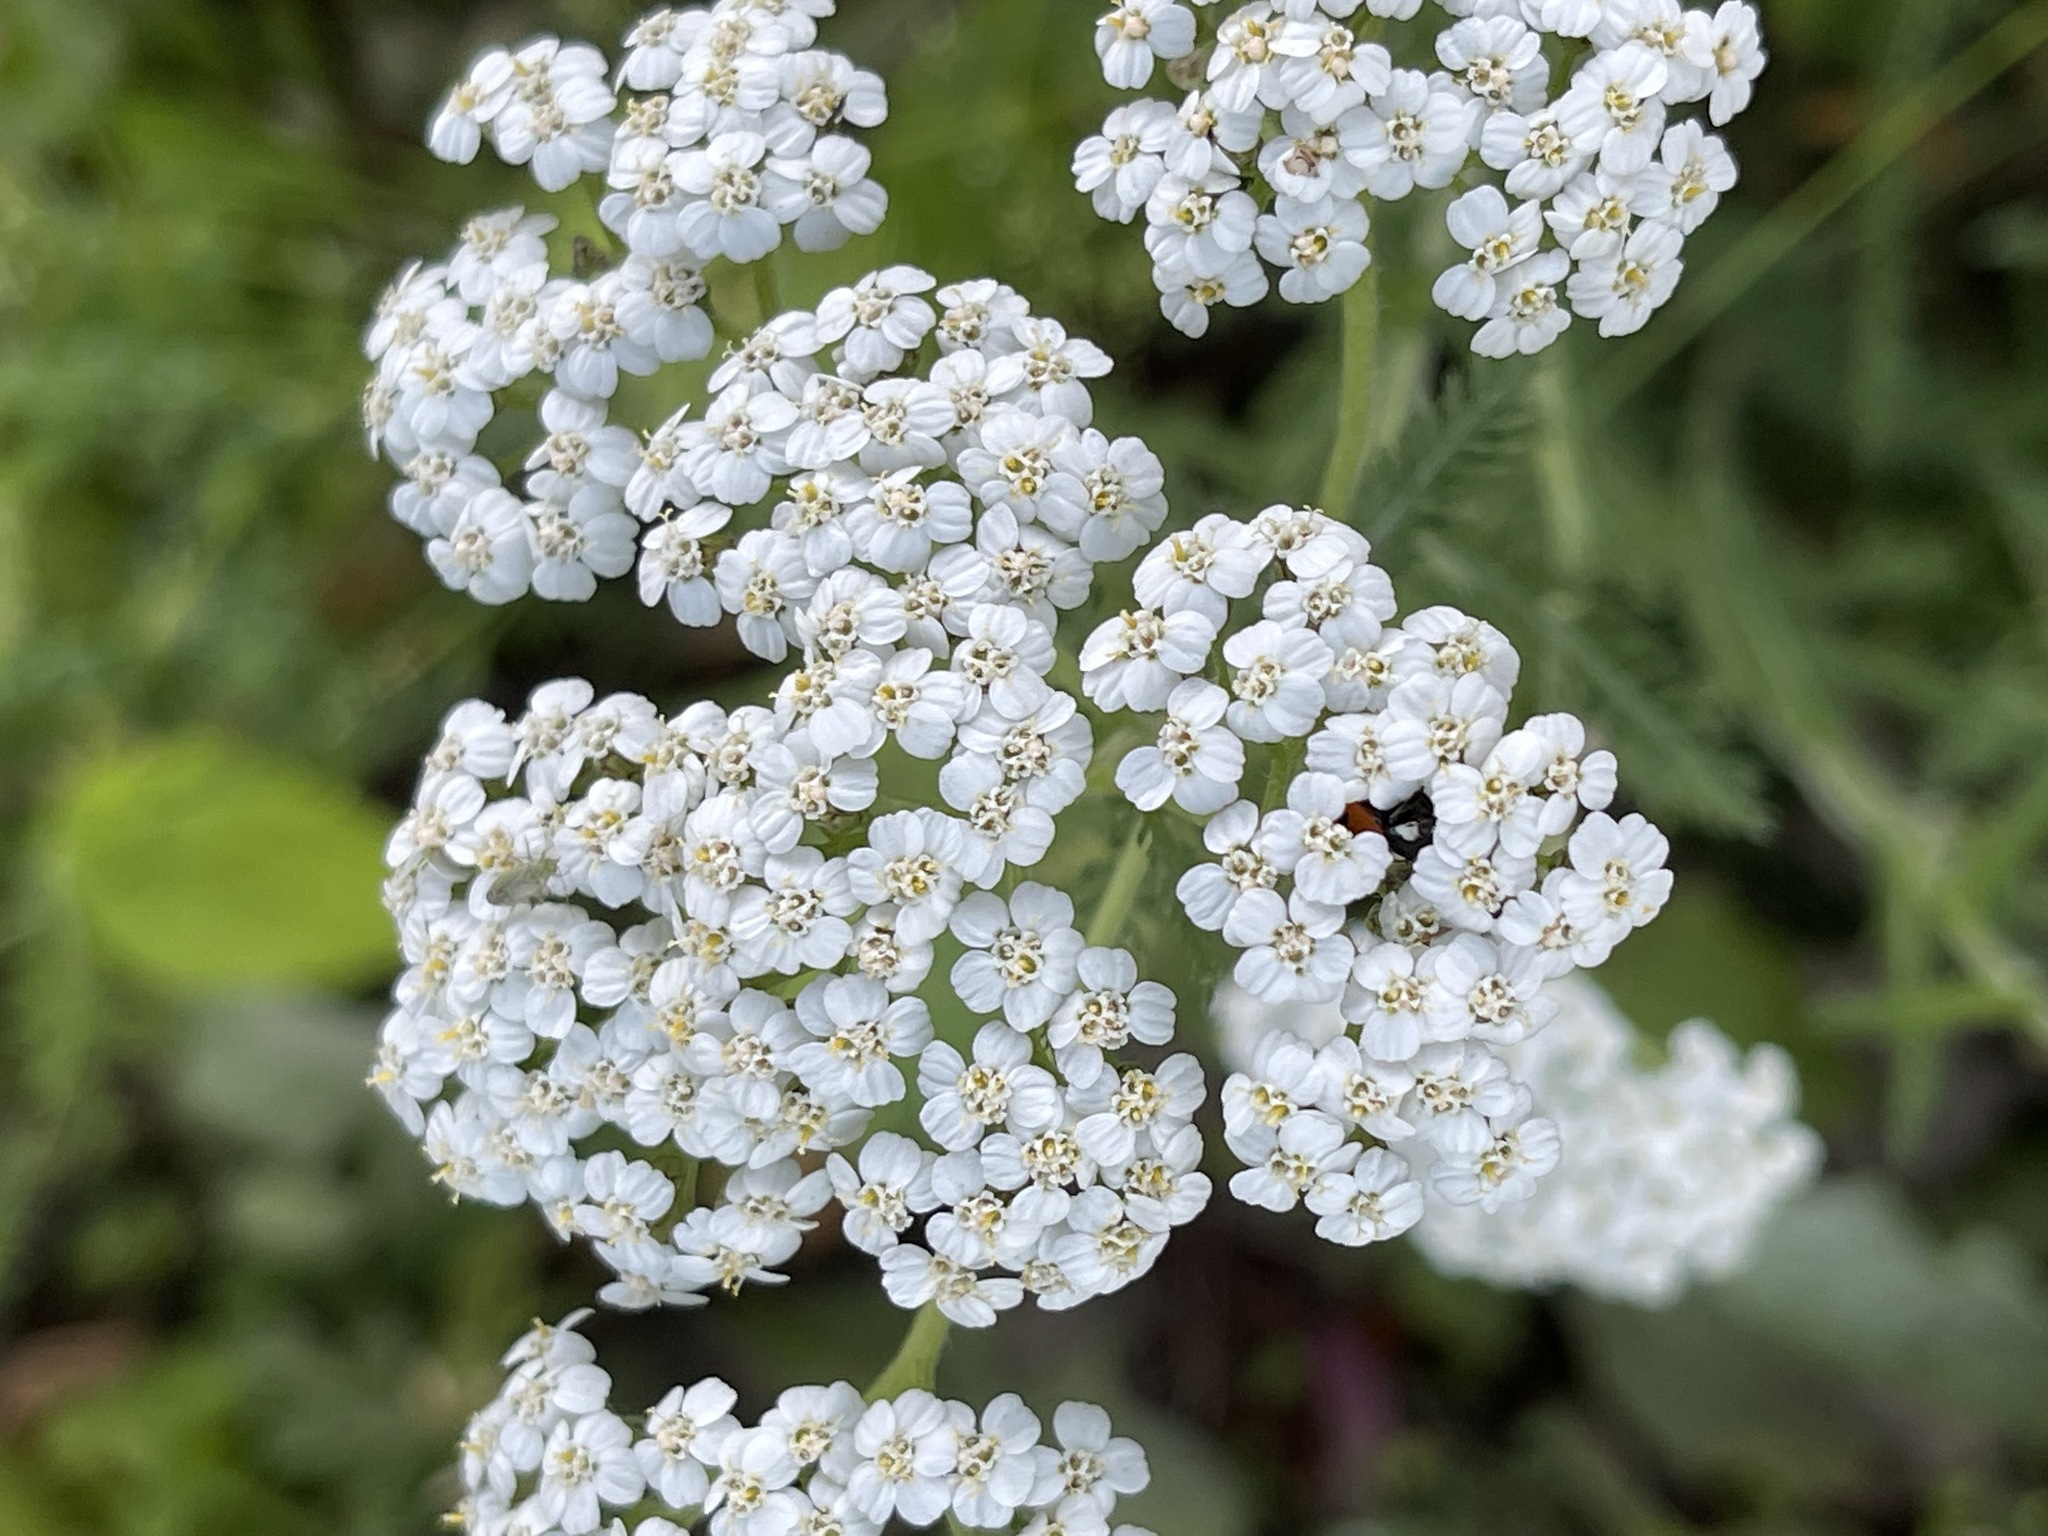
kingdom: Plantae
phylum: Tracheophyta
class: Magnoliopsida
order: Asterales
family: Asteraceae
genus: Achillea
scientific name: Achillea millefolium
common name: Yarrow
